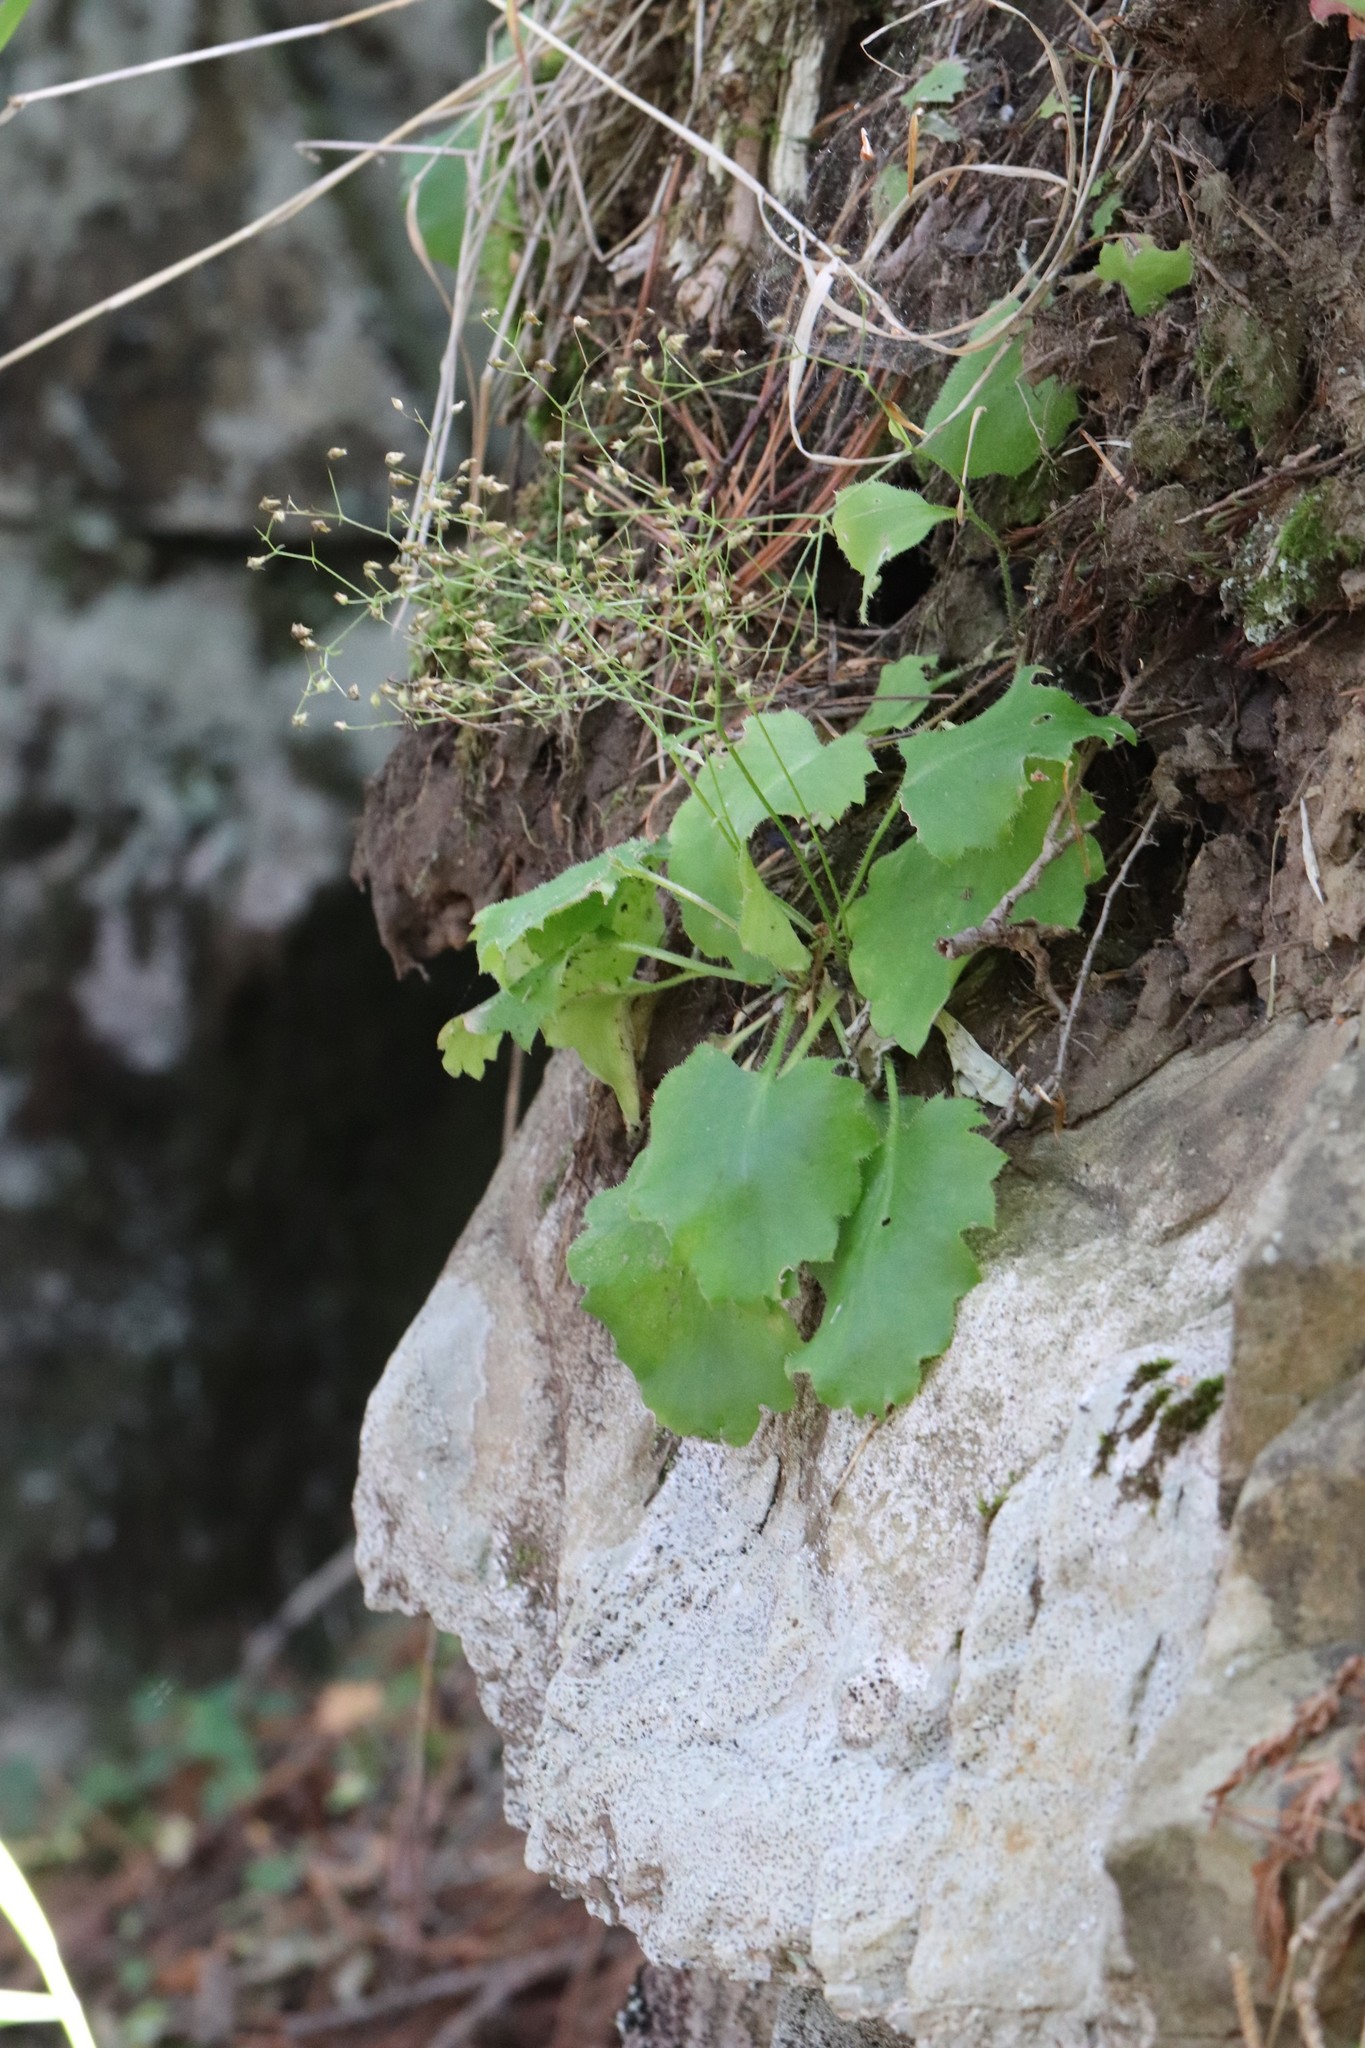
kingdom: Plantae
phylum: Tracheophyta
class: Magnoliopsida
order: Saxifragales
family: Saxifragaceae
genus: Micranthes
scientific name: Micranthes oblongifolia
